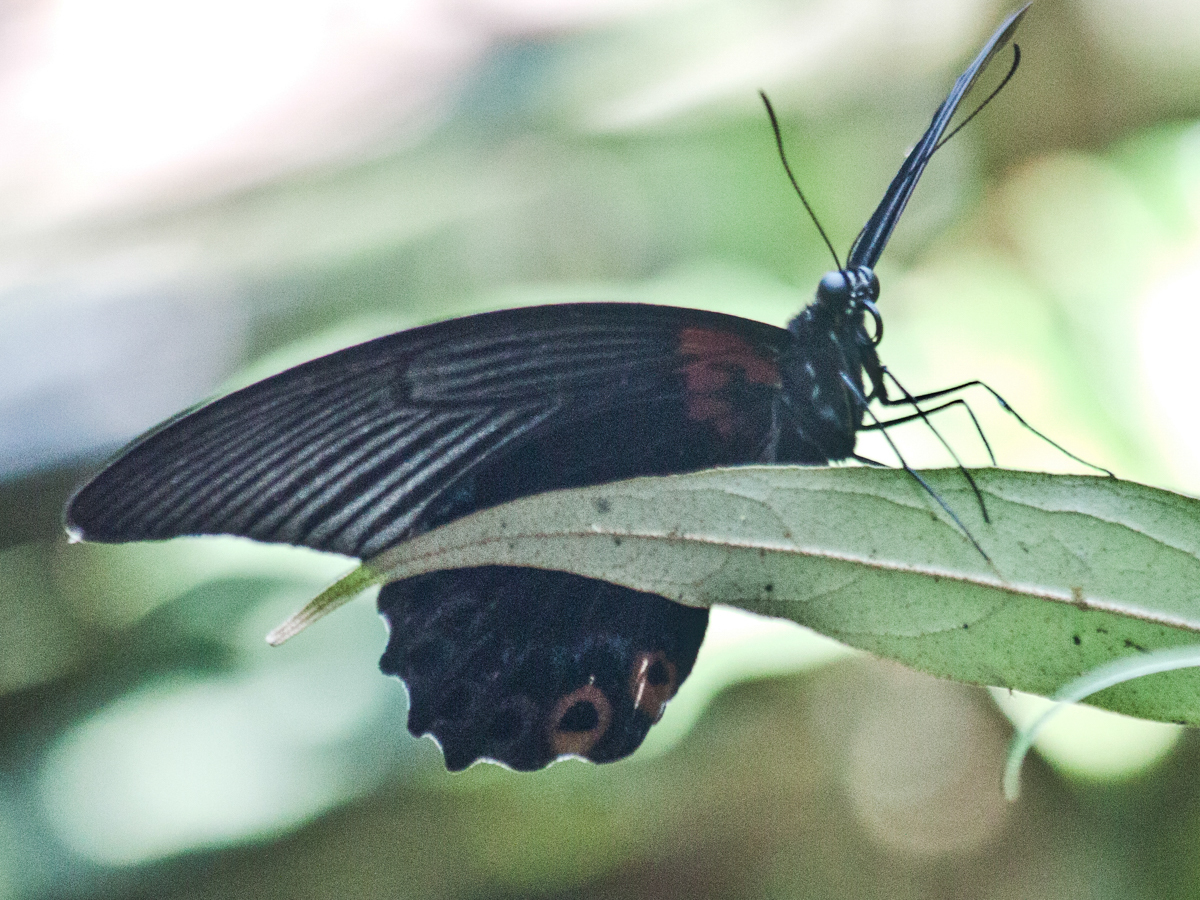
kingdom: Animalia
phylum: Arthropoda
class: Insecta
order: Lepidoptera
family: Papilionidae
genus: Papilio
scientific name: Papilio memnon
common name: Great mormon
